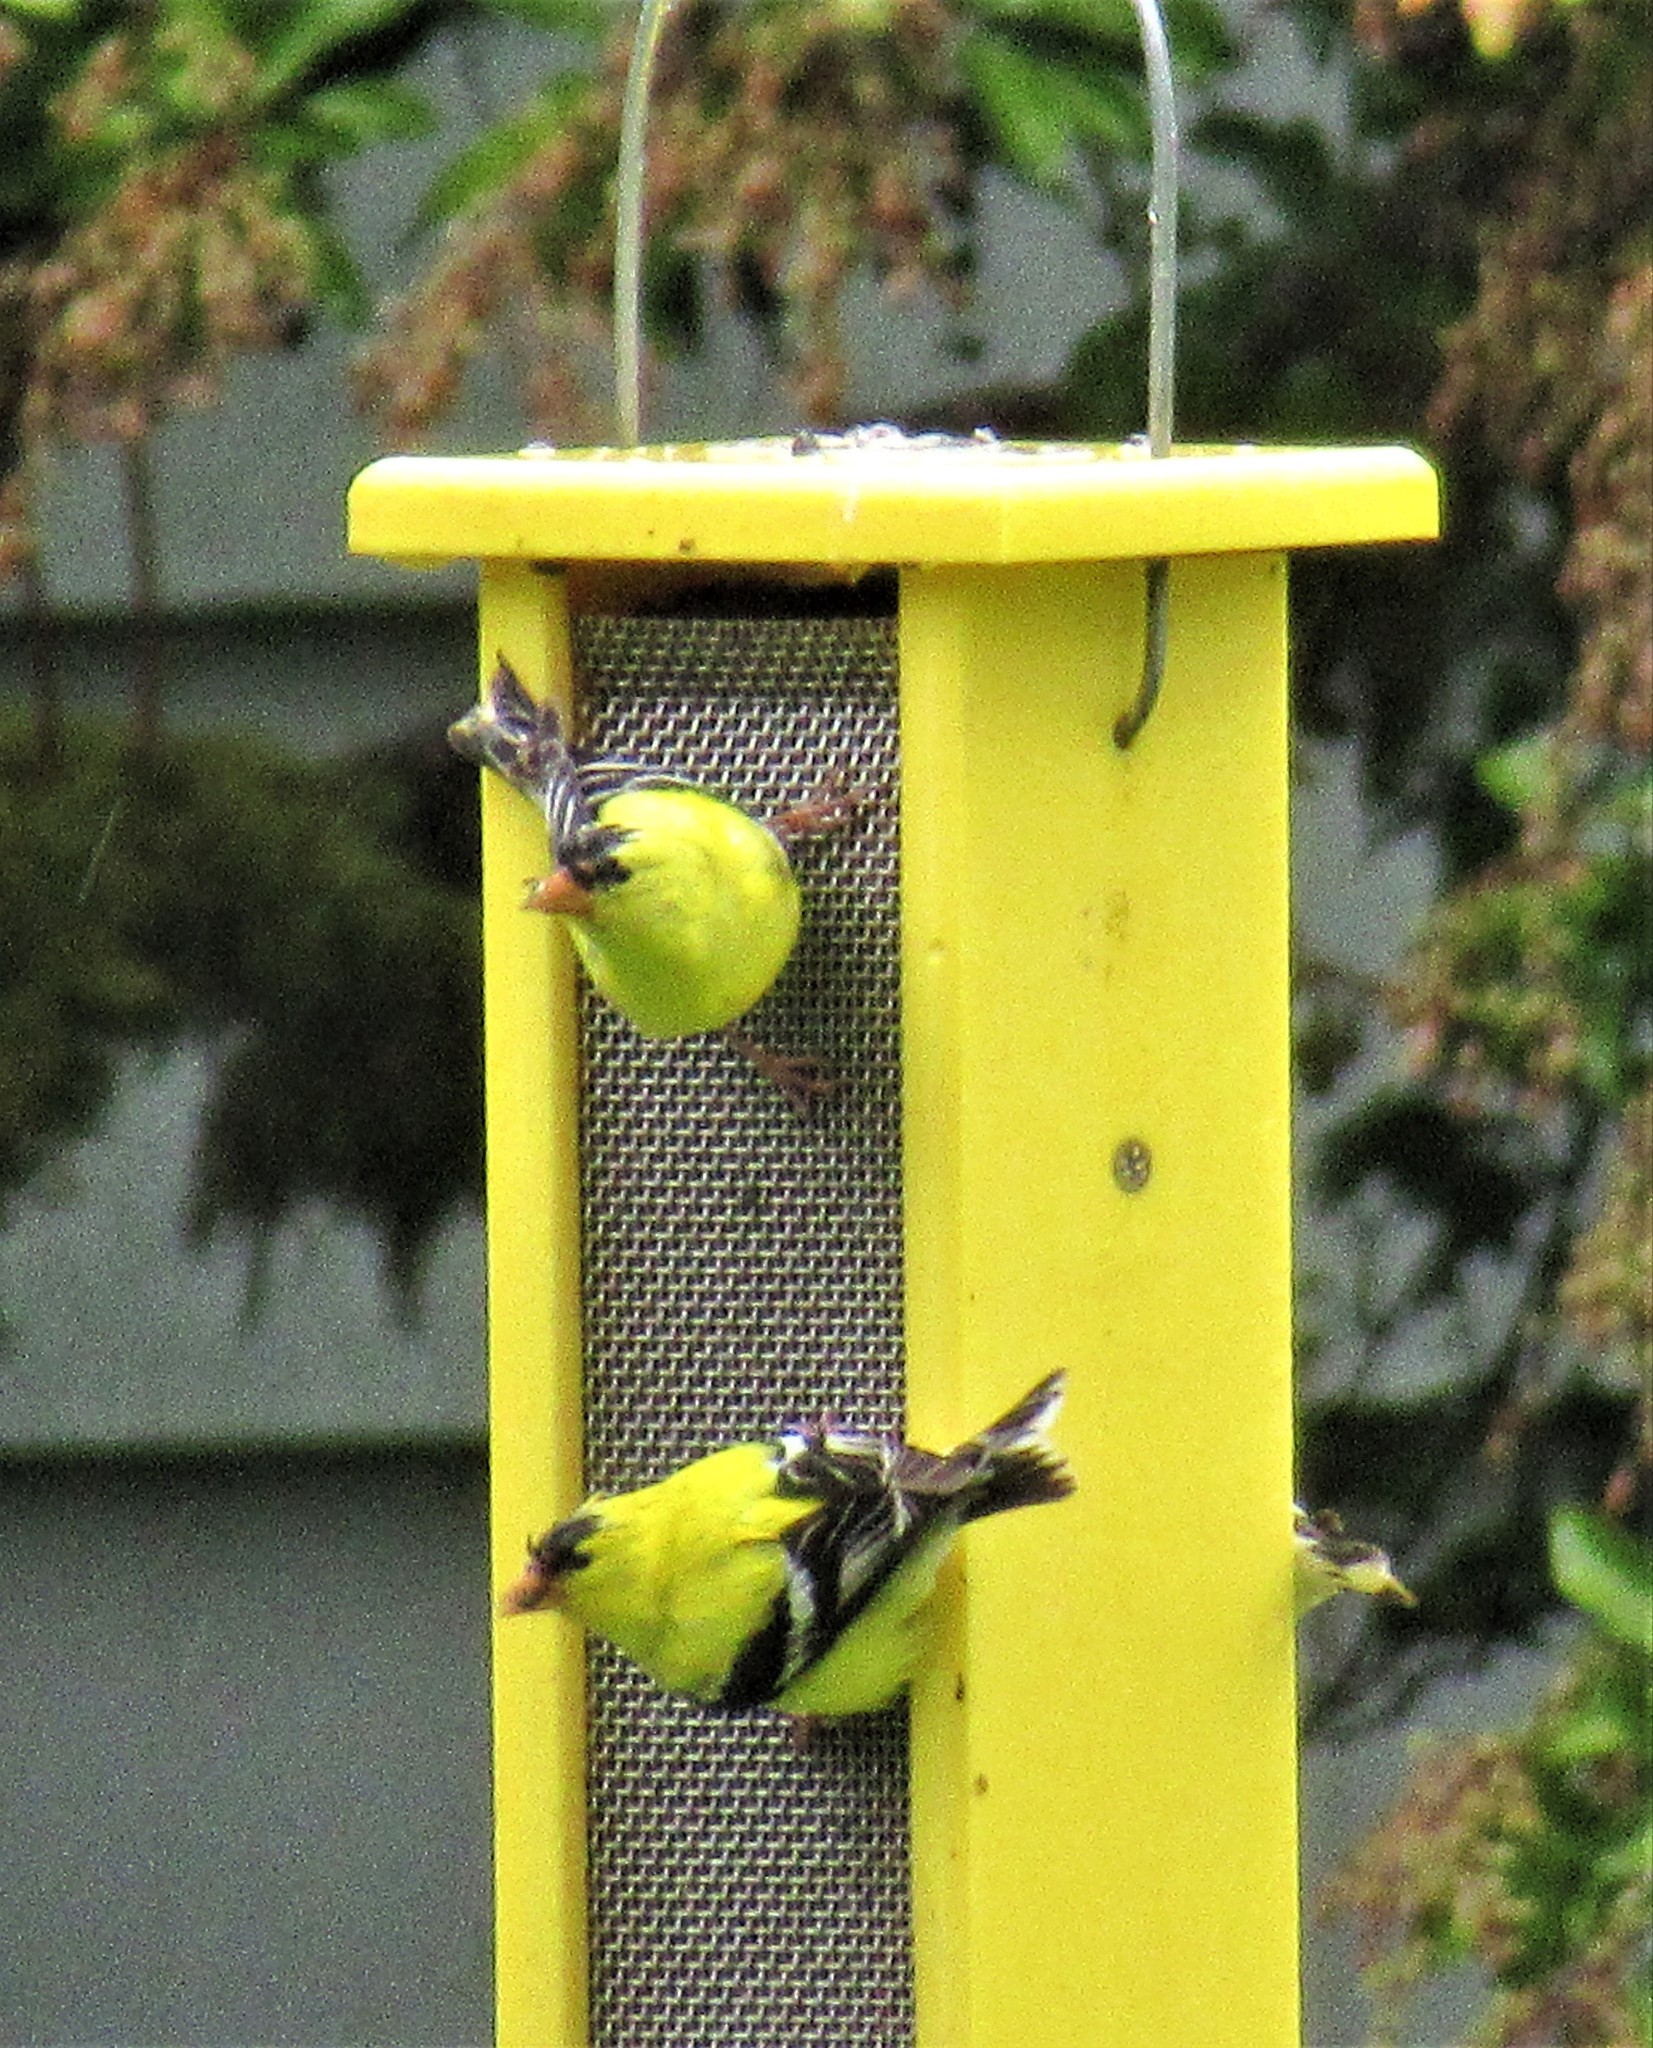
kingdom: Animalia
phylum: Chordata
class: Aves
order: Passeriformes
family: Fringillidae
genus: Spinus
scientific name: Spinus tristis
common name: American goldfinch
